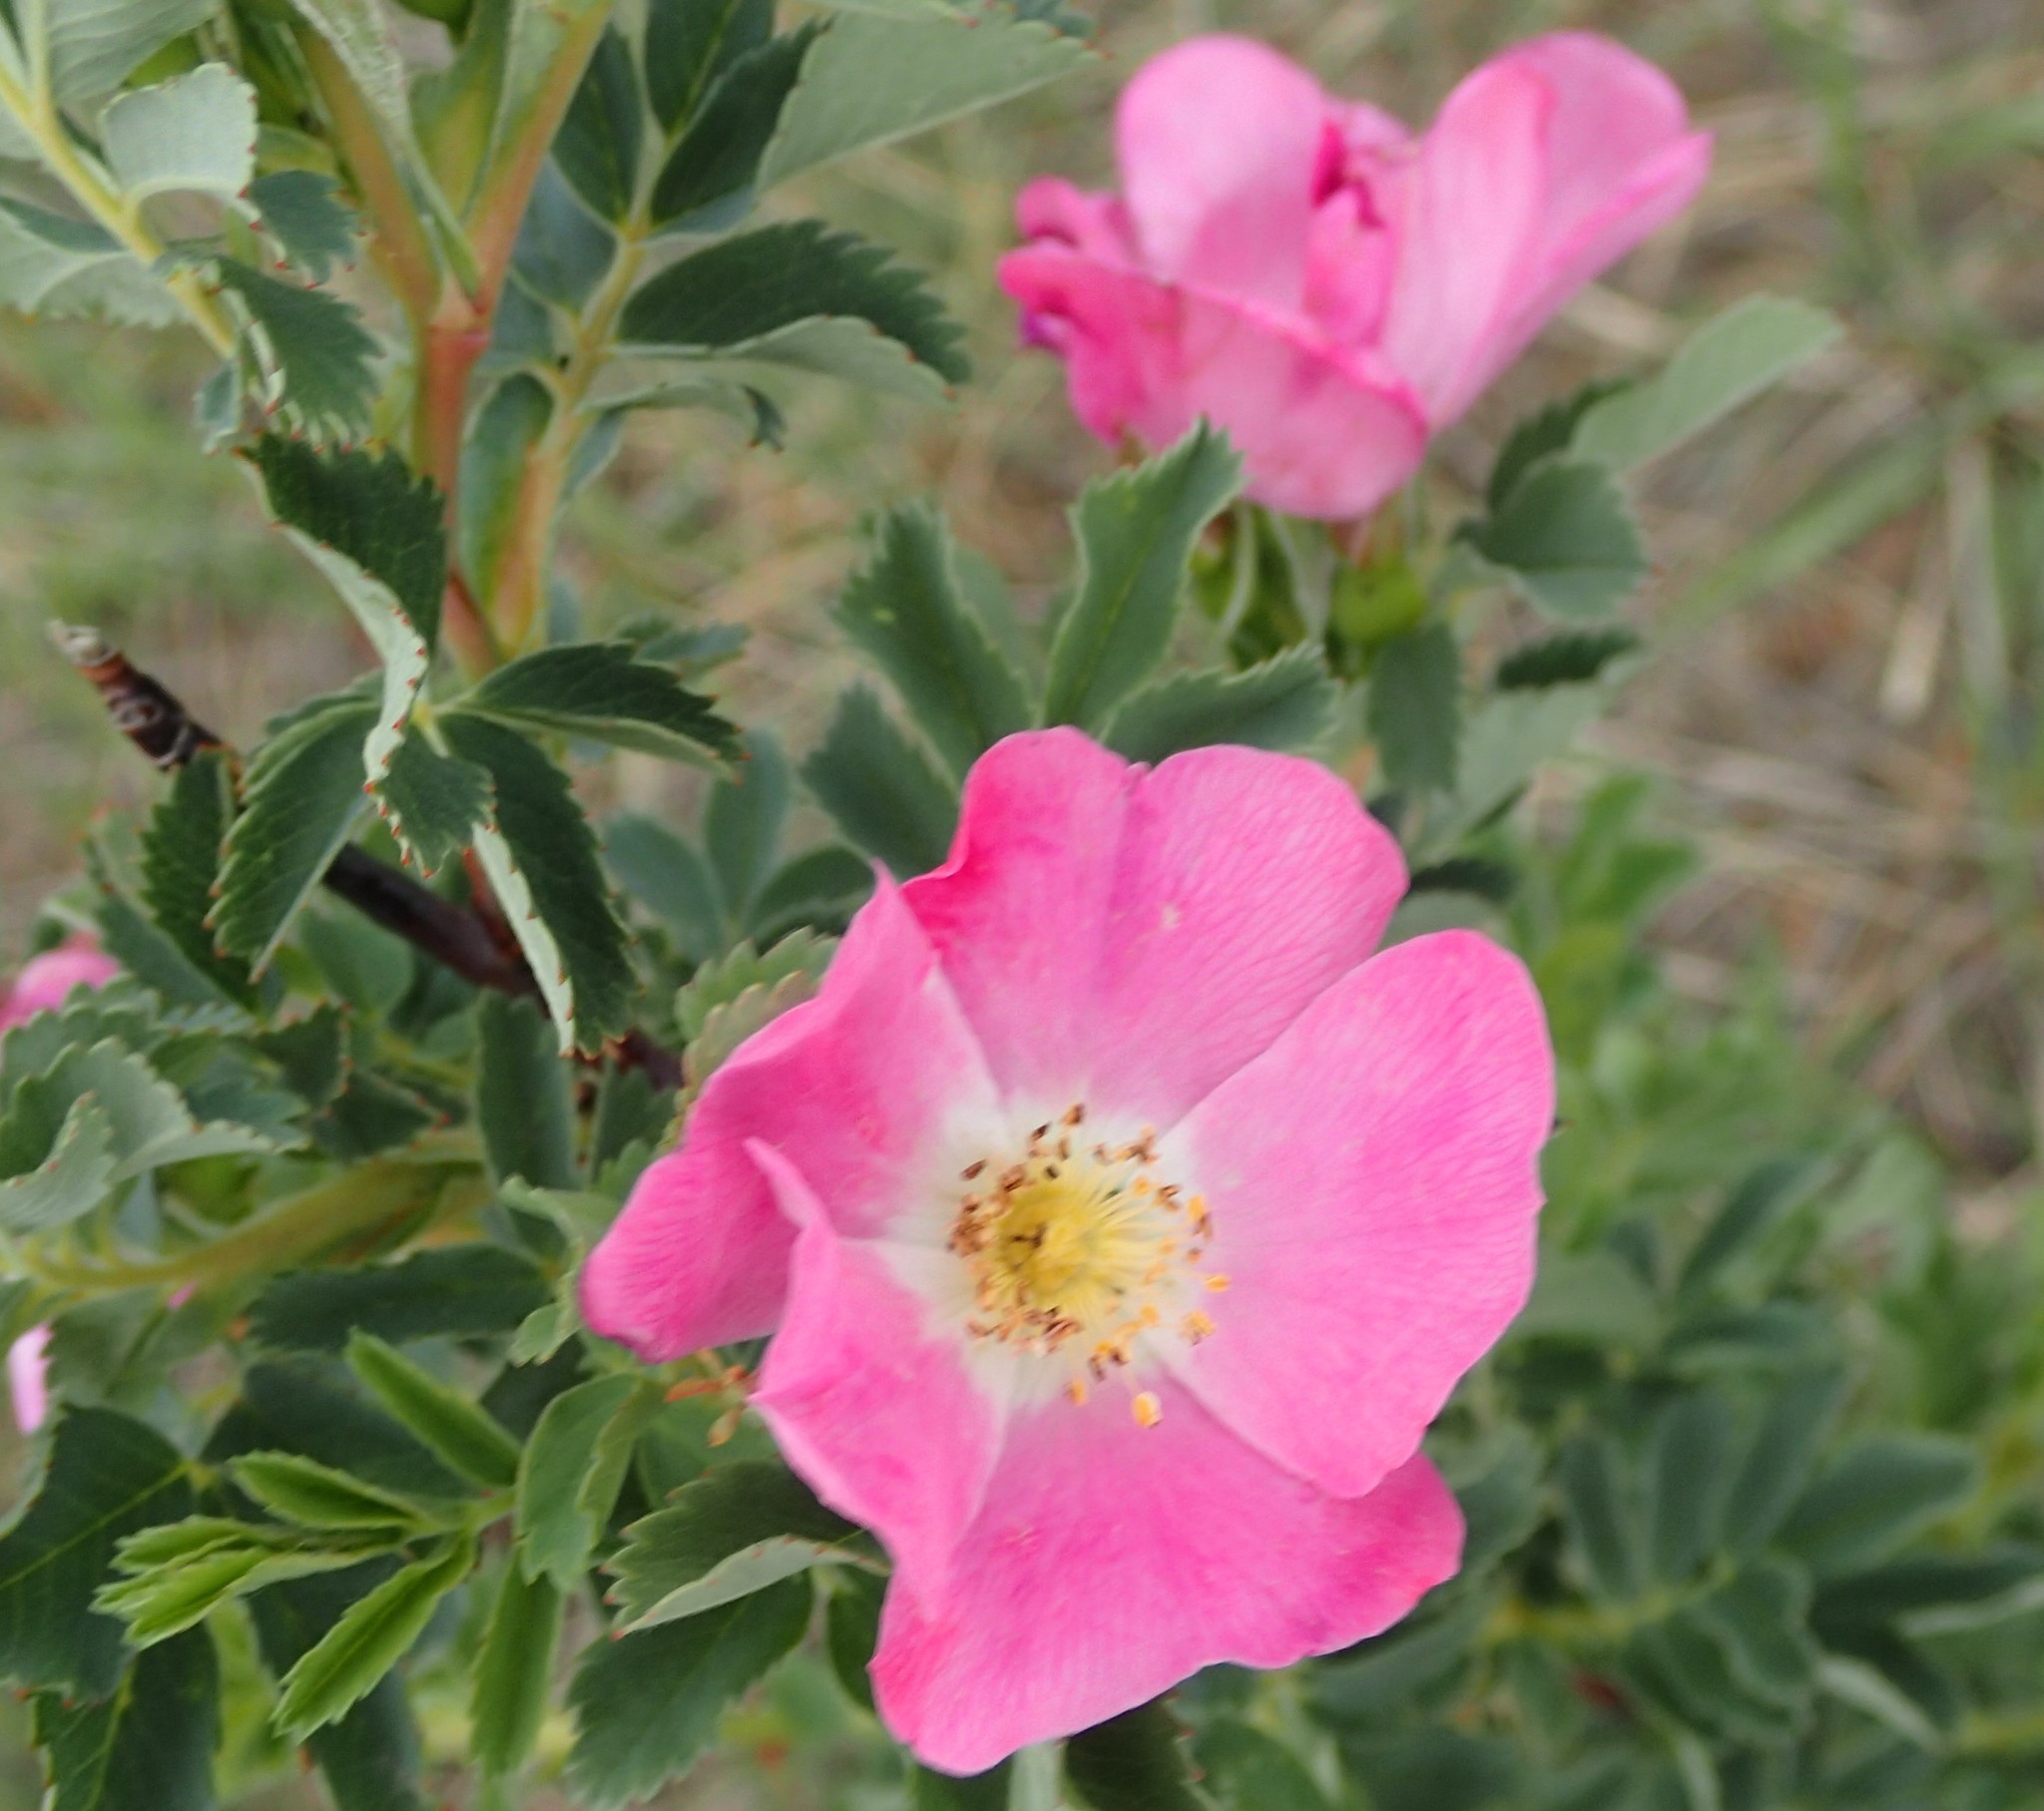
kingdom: Plantae
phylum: Tracheophyta
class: Magnoliopsida
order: Rosales
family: Rosaceae
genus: Rosa
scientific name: Rosa arkansana
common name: Prairie rose
